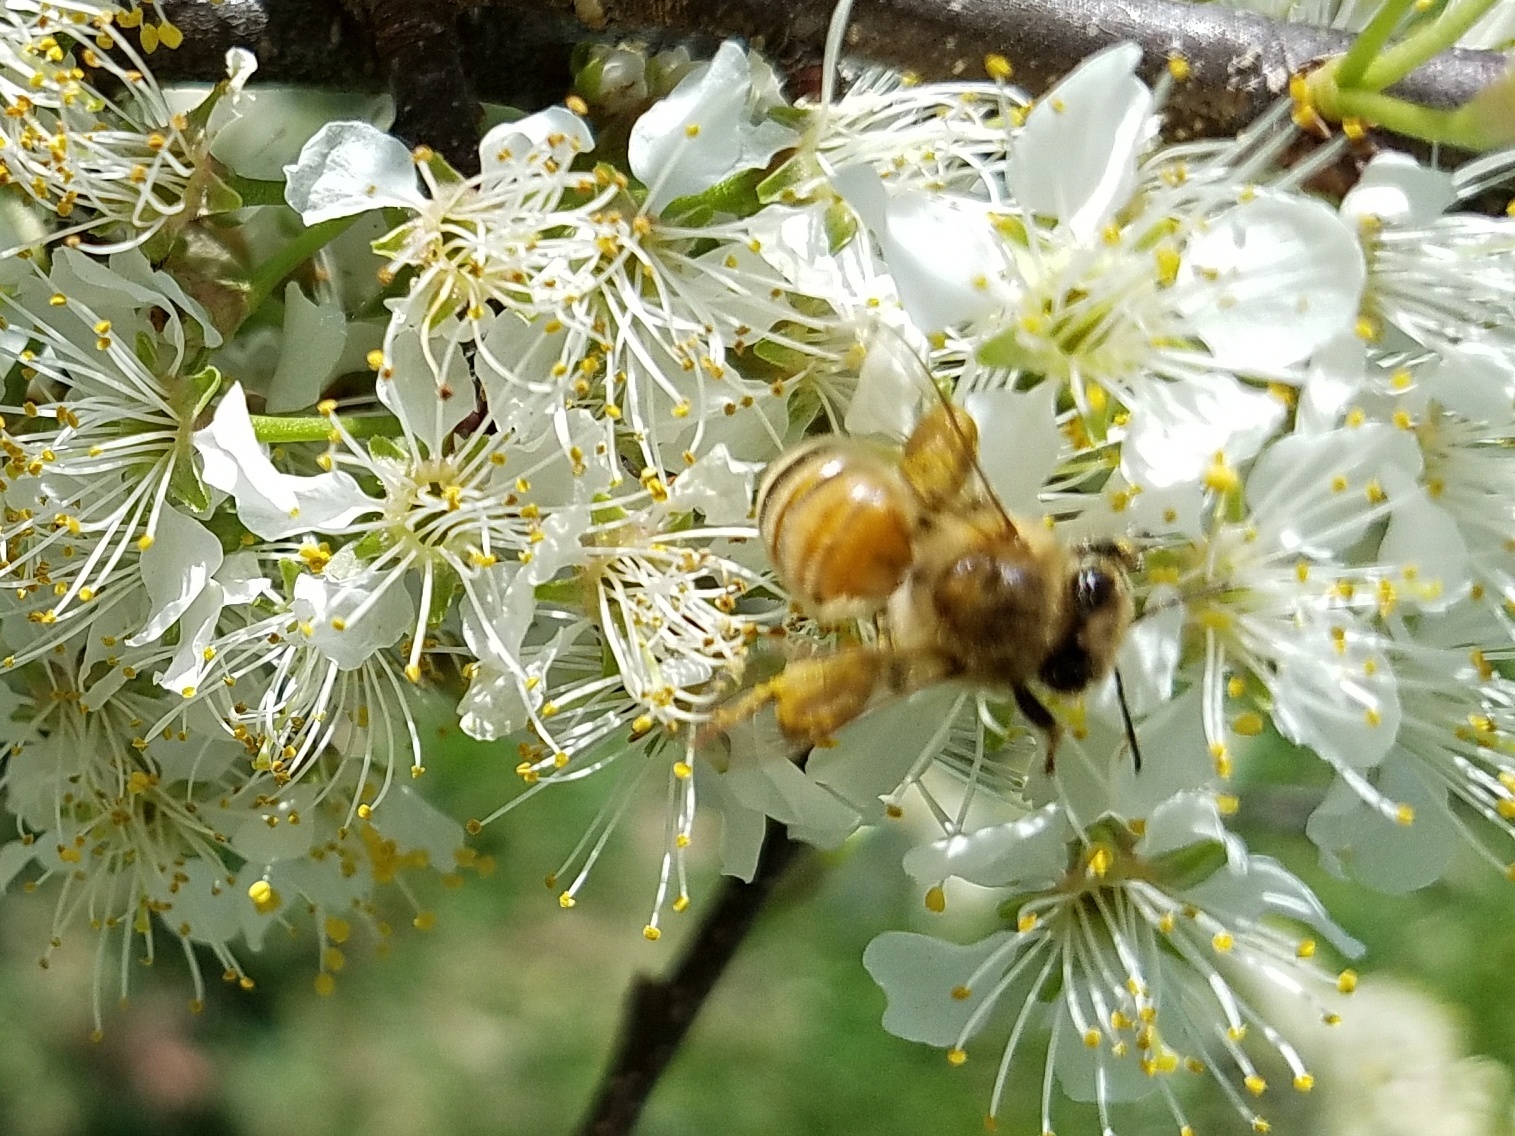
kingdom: Animalia
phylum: Arthropoda
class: Insecta
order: Hymenoptera
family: Apidae
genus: Apis
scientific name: Apis mellifera
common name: Honey bee
